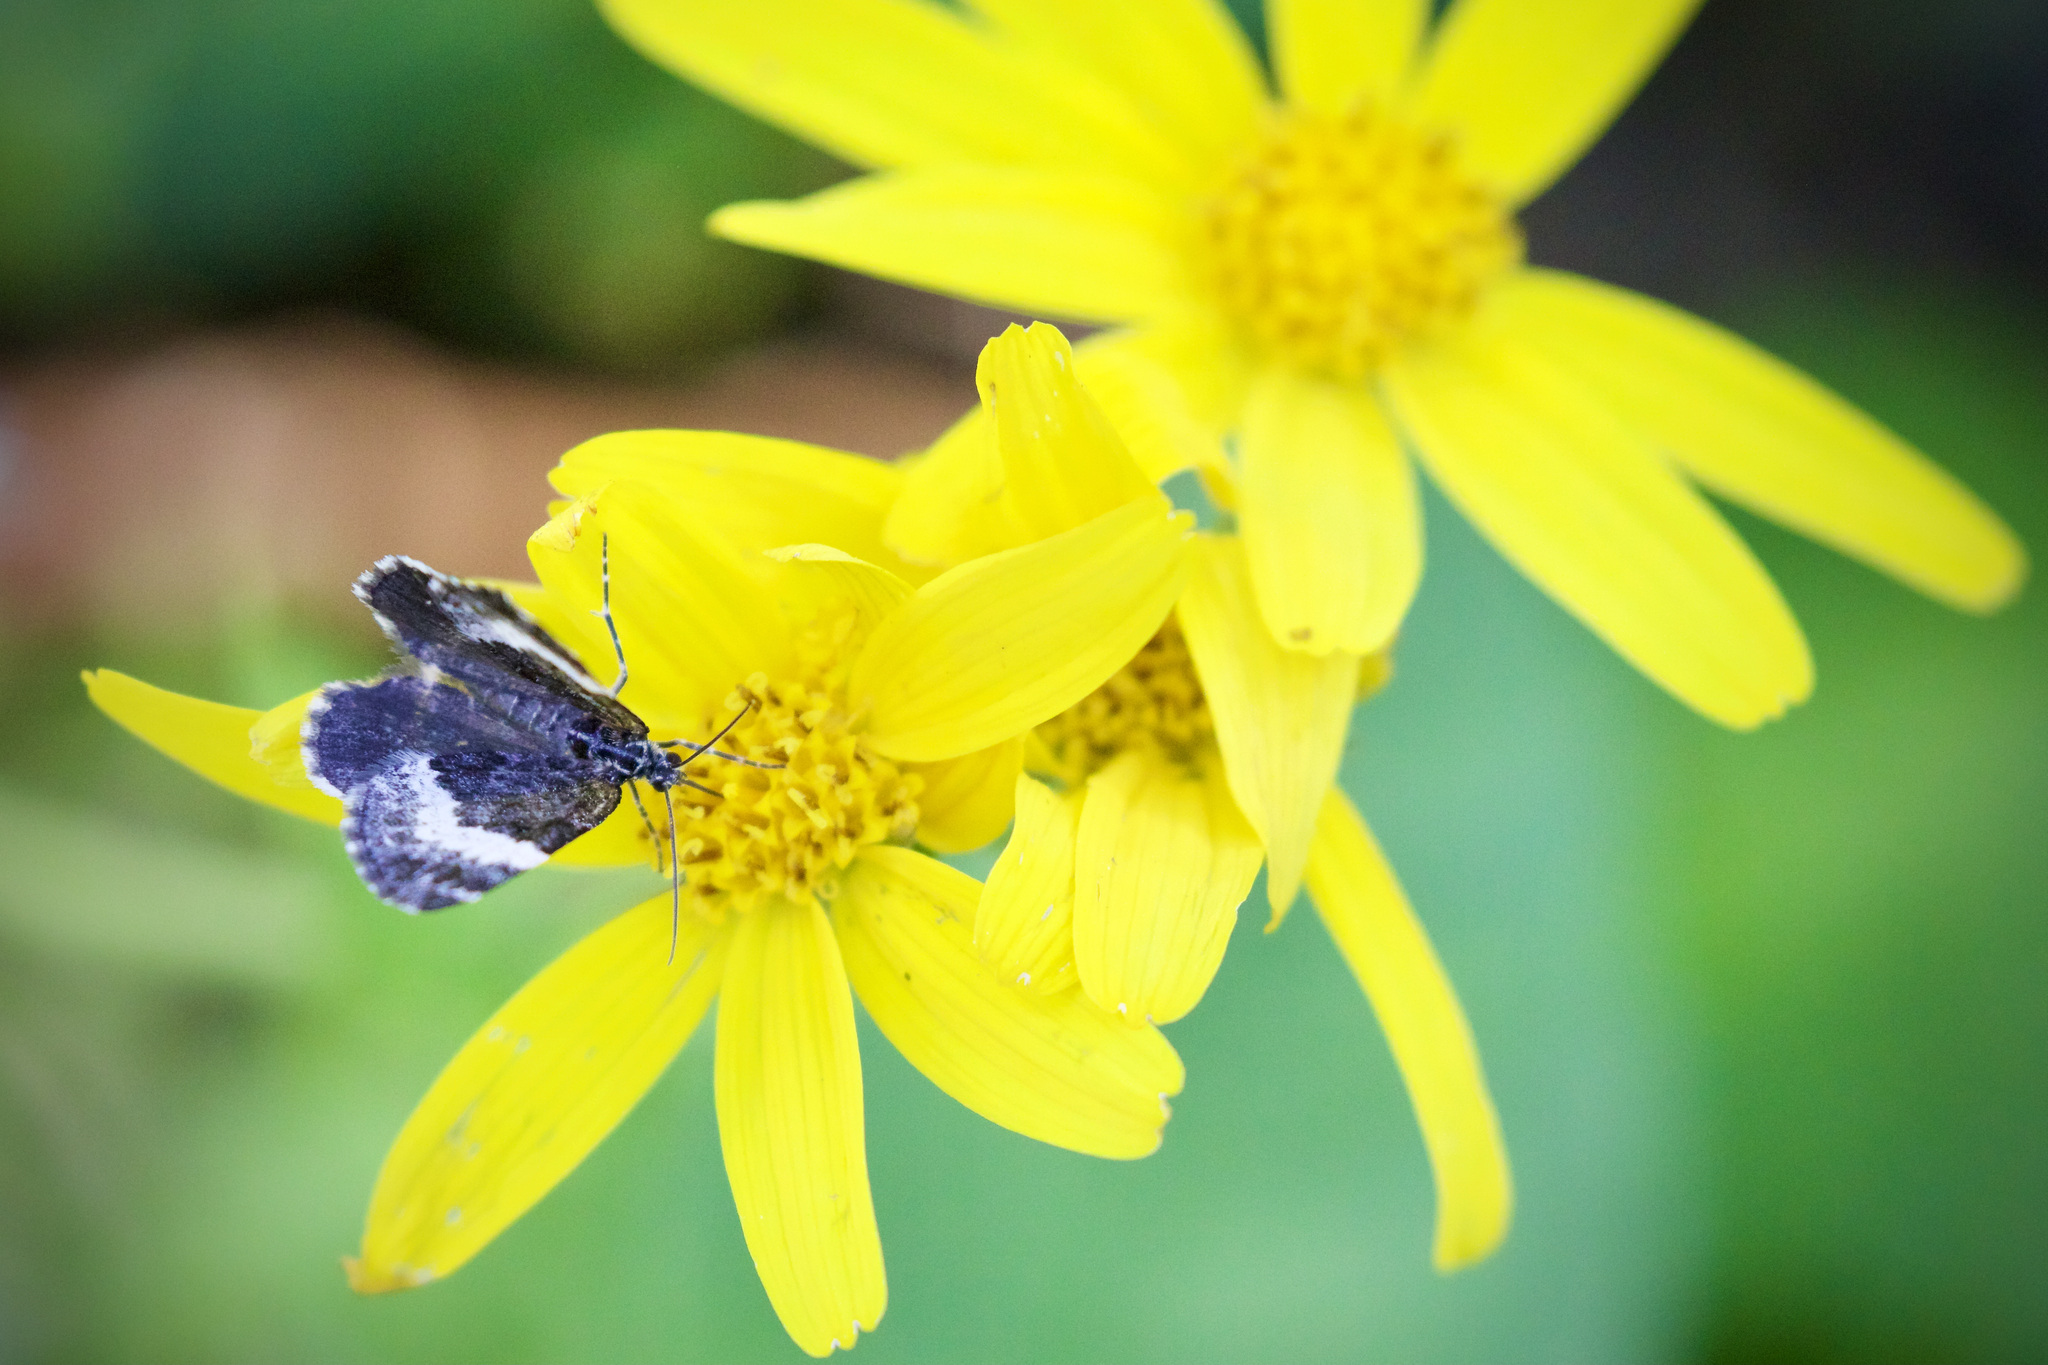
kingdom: Animalia
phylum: Arthropoda
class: Insecta
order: Lepidoptera
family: Geometridae
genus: Spargania
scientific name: Spargania luctuata
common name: White-banded carpet
